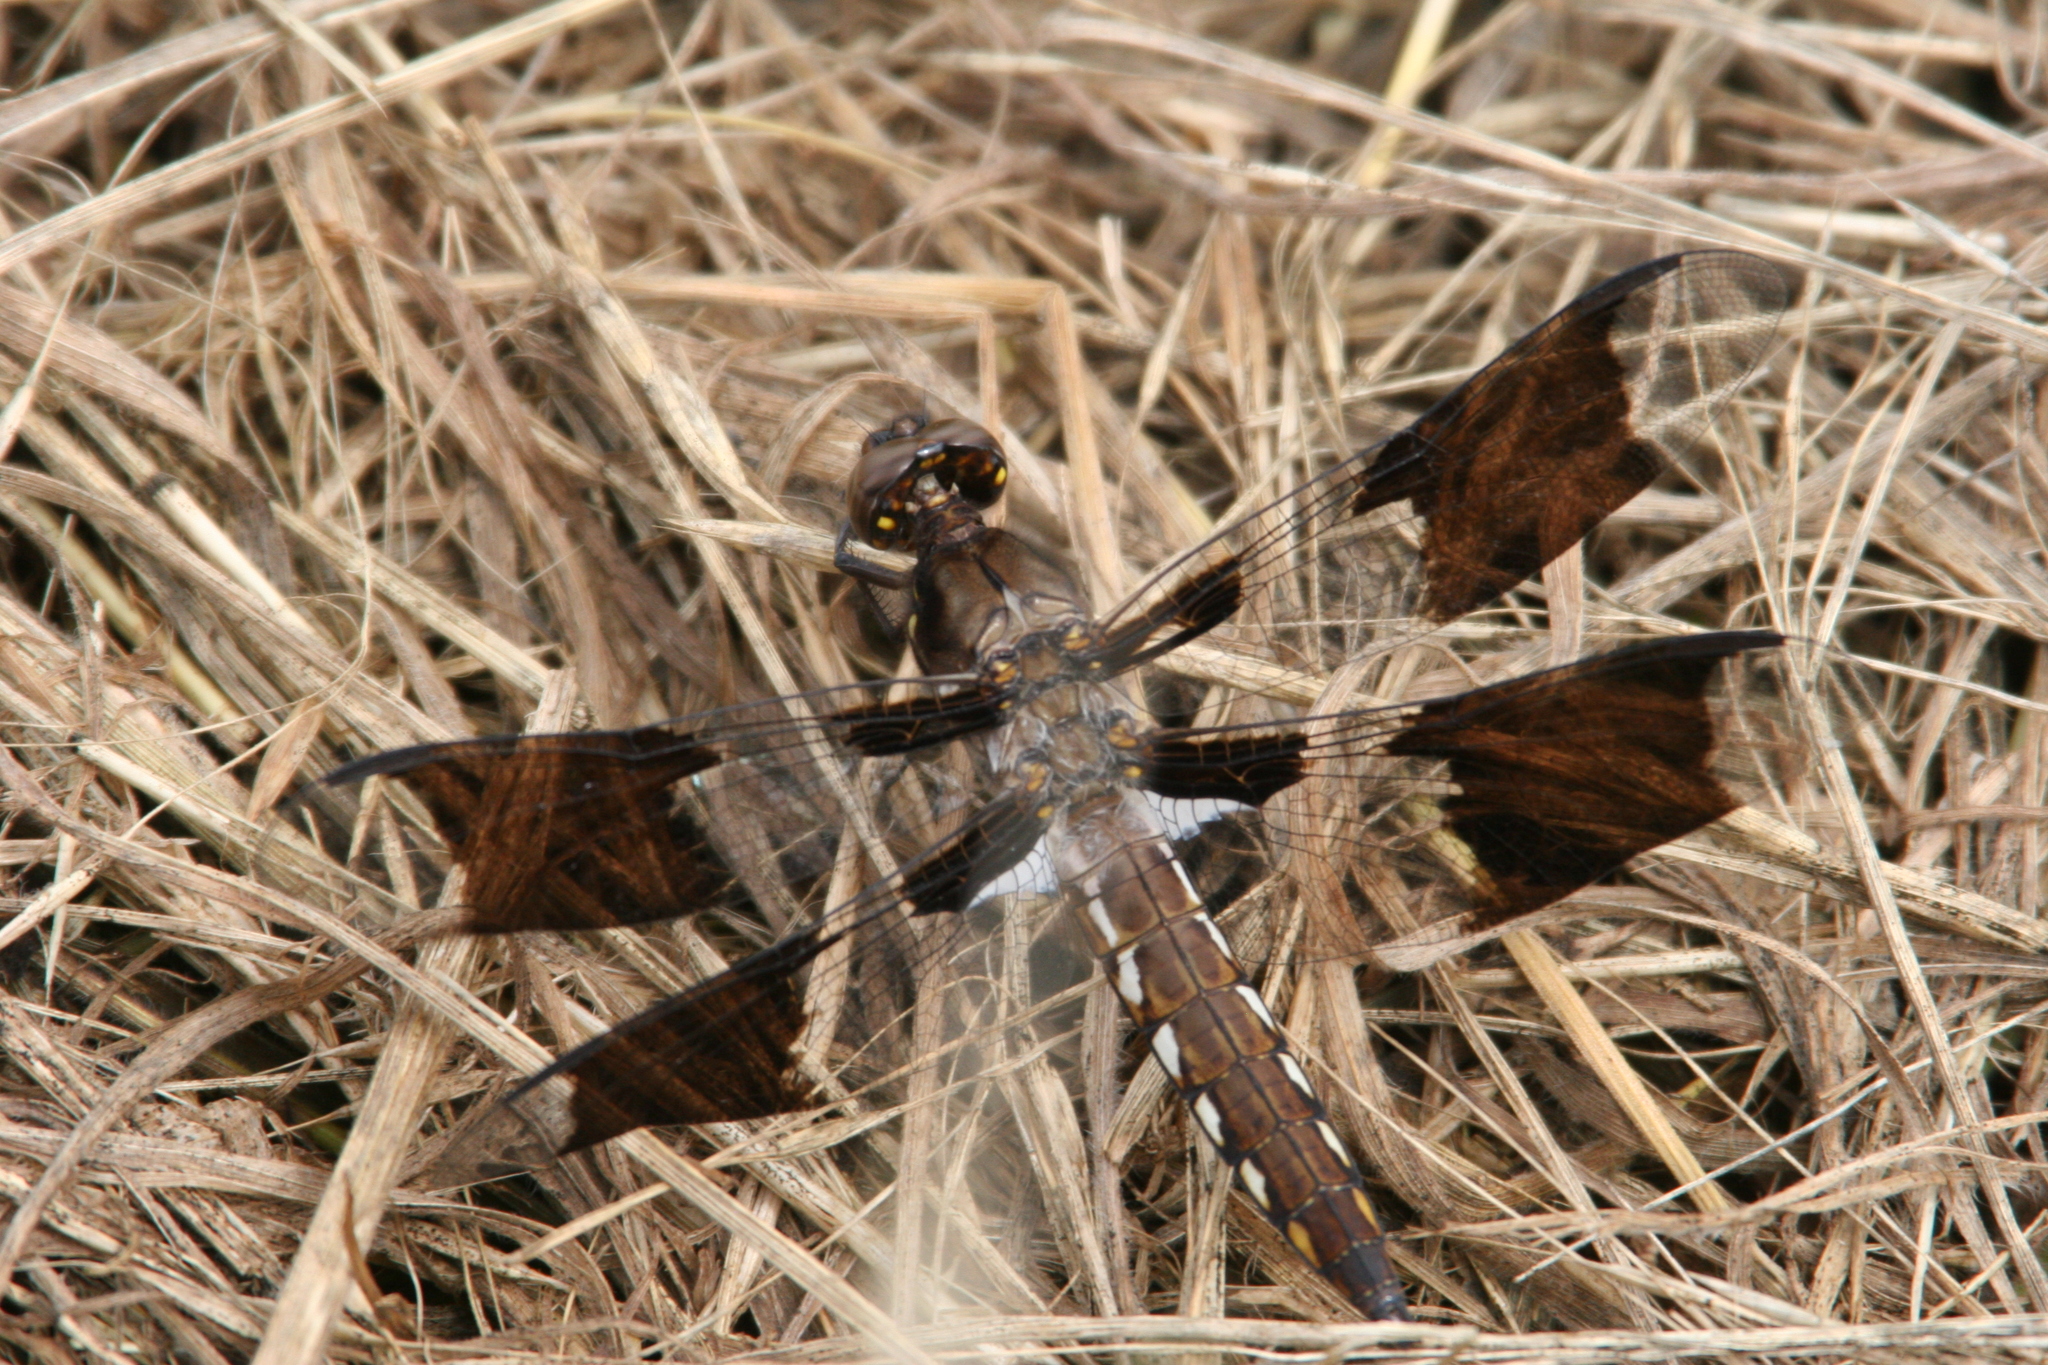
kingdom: Animalia
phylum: Arthropoda
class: Insecta
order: Odonata
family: Libellulidae
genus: Plathemis
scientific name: Plathemis lydia
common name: Common whitetail
